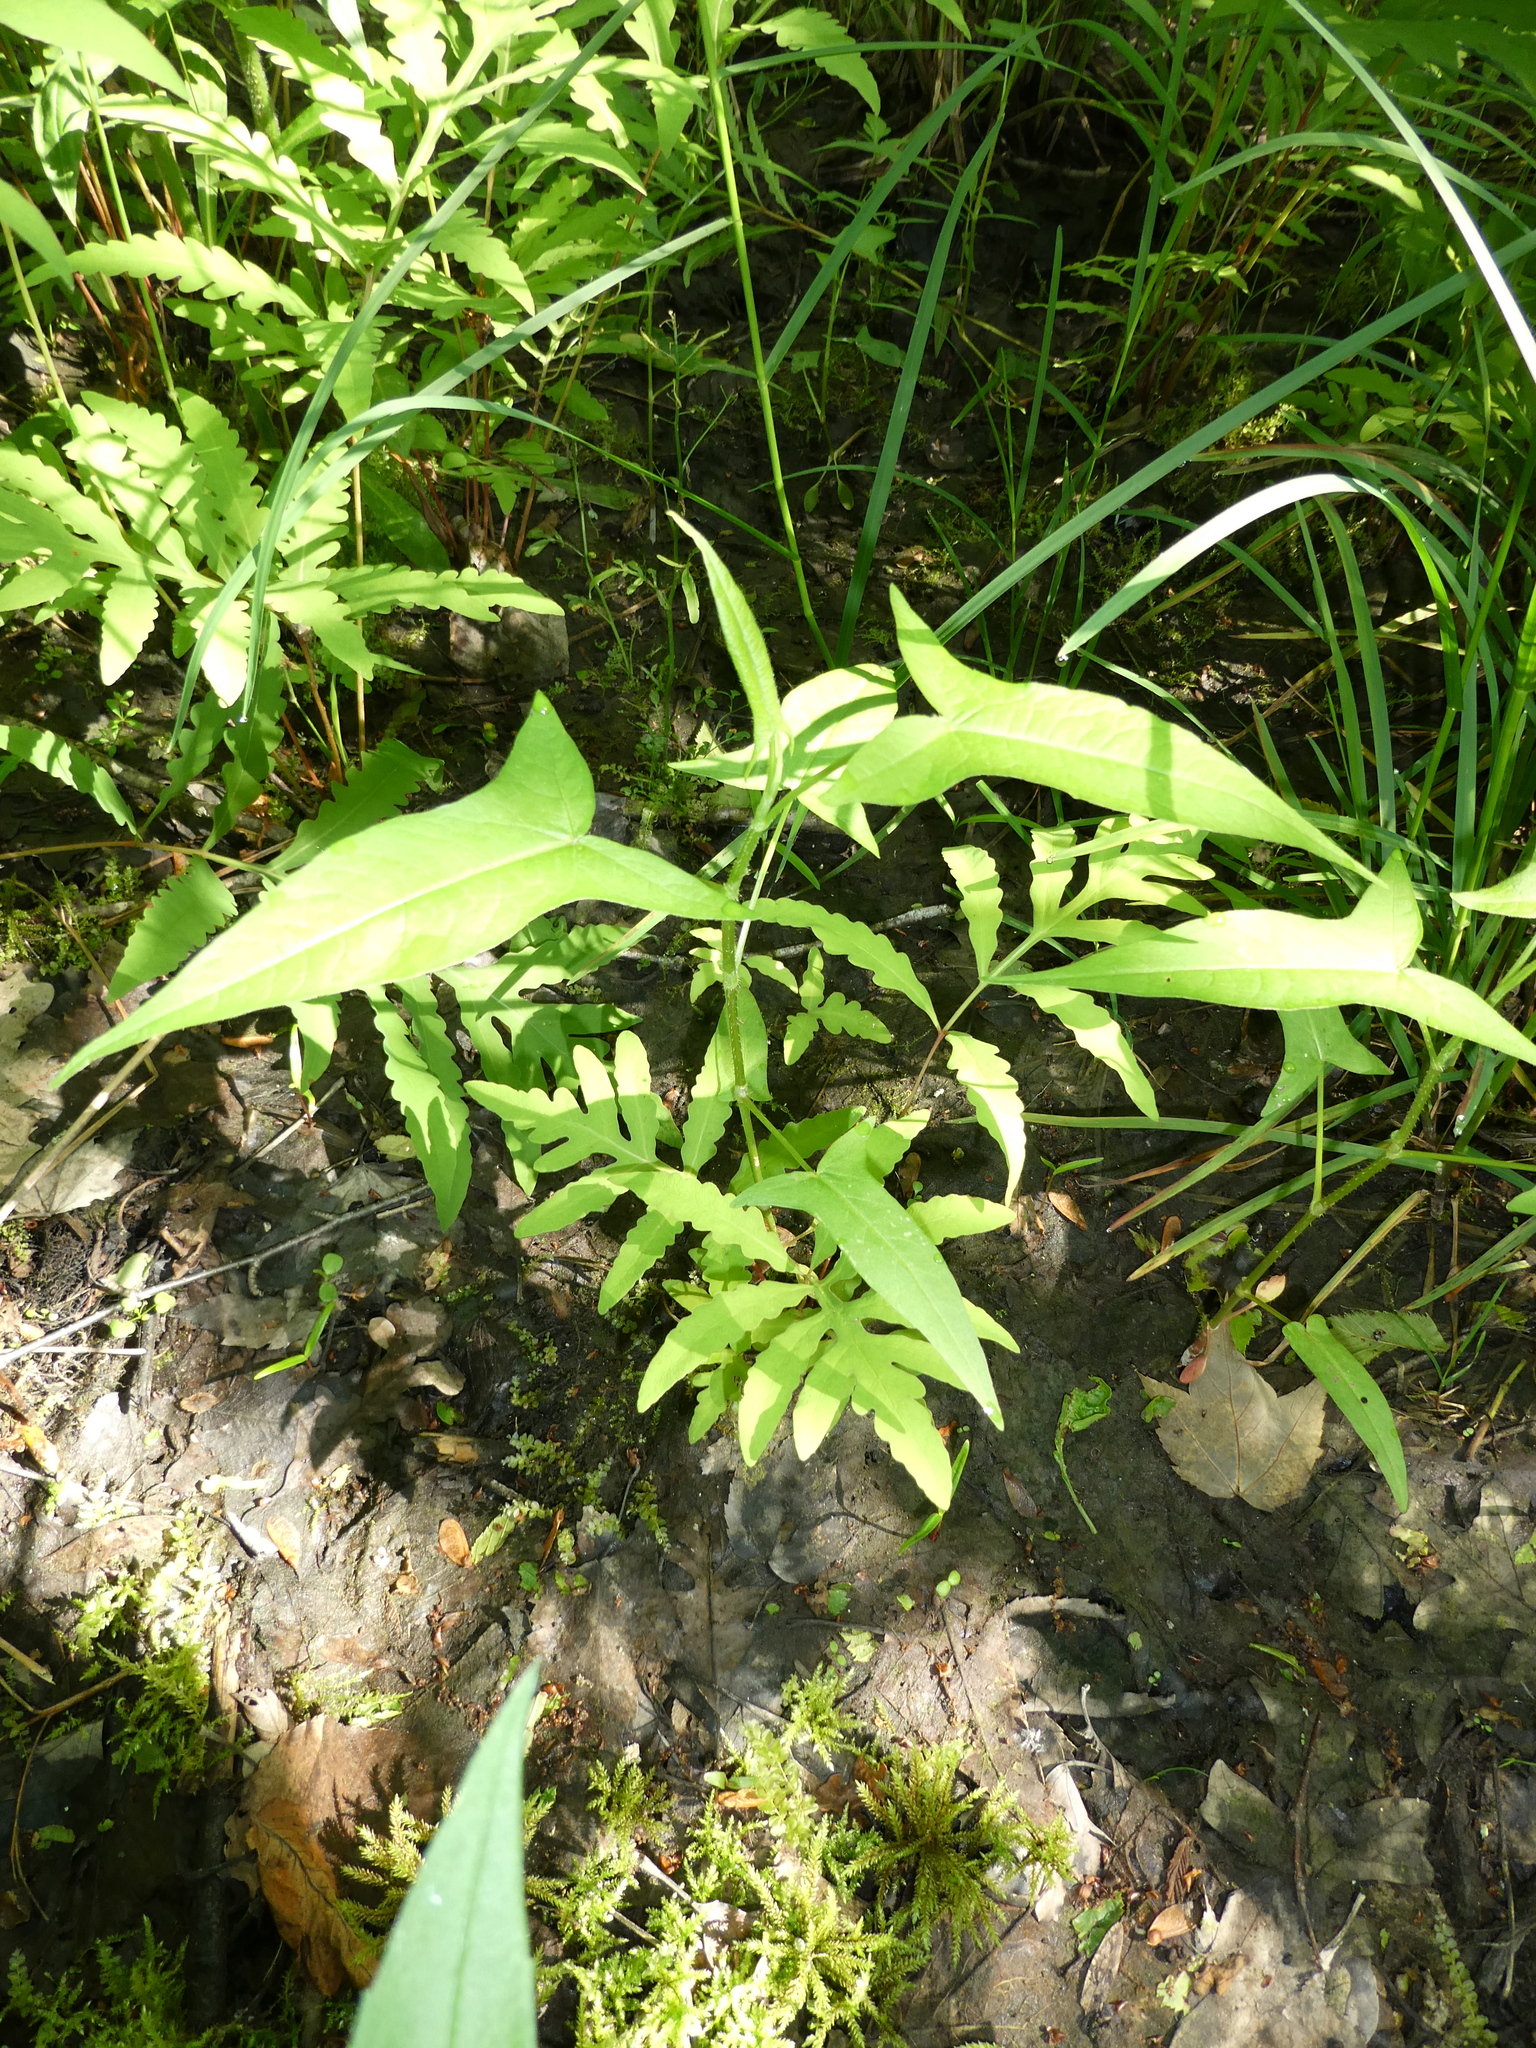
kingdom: Plantae
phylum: Tracheophyta
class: Magnoliopsida
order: Caryophyllales
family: Polygonaceae
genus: Persicaria
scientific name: Persicaria arifolia
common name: Halberd-leaved tear-thumb
